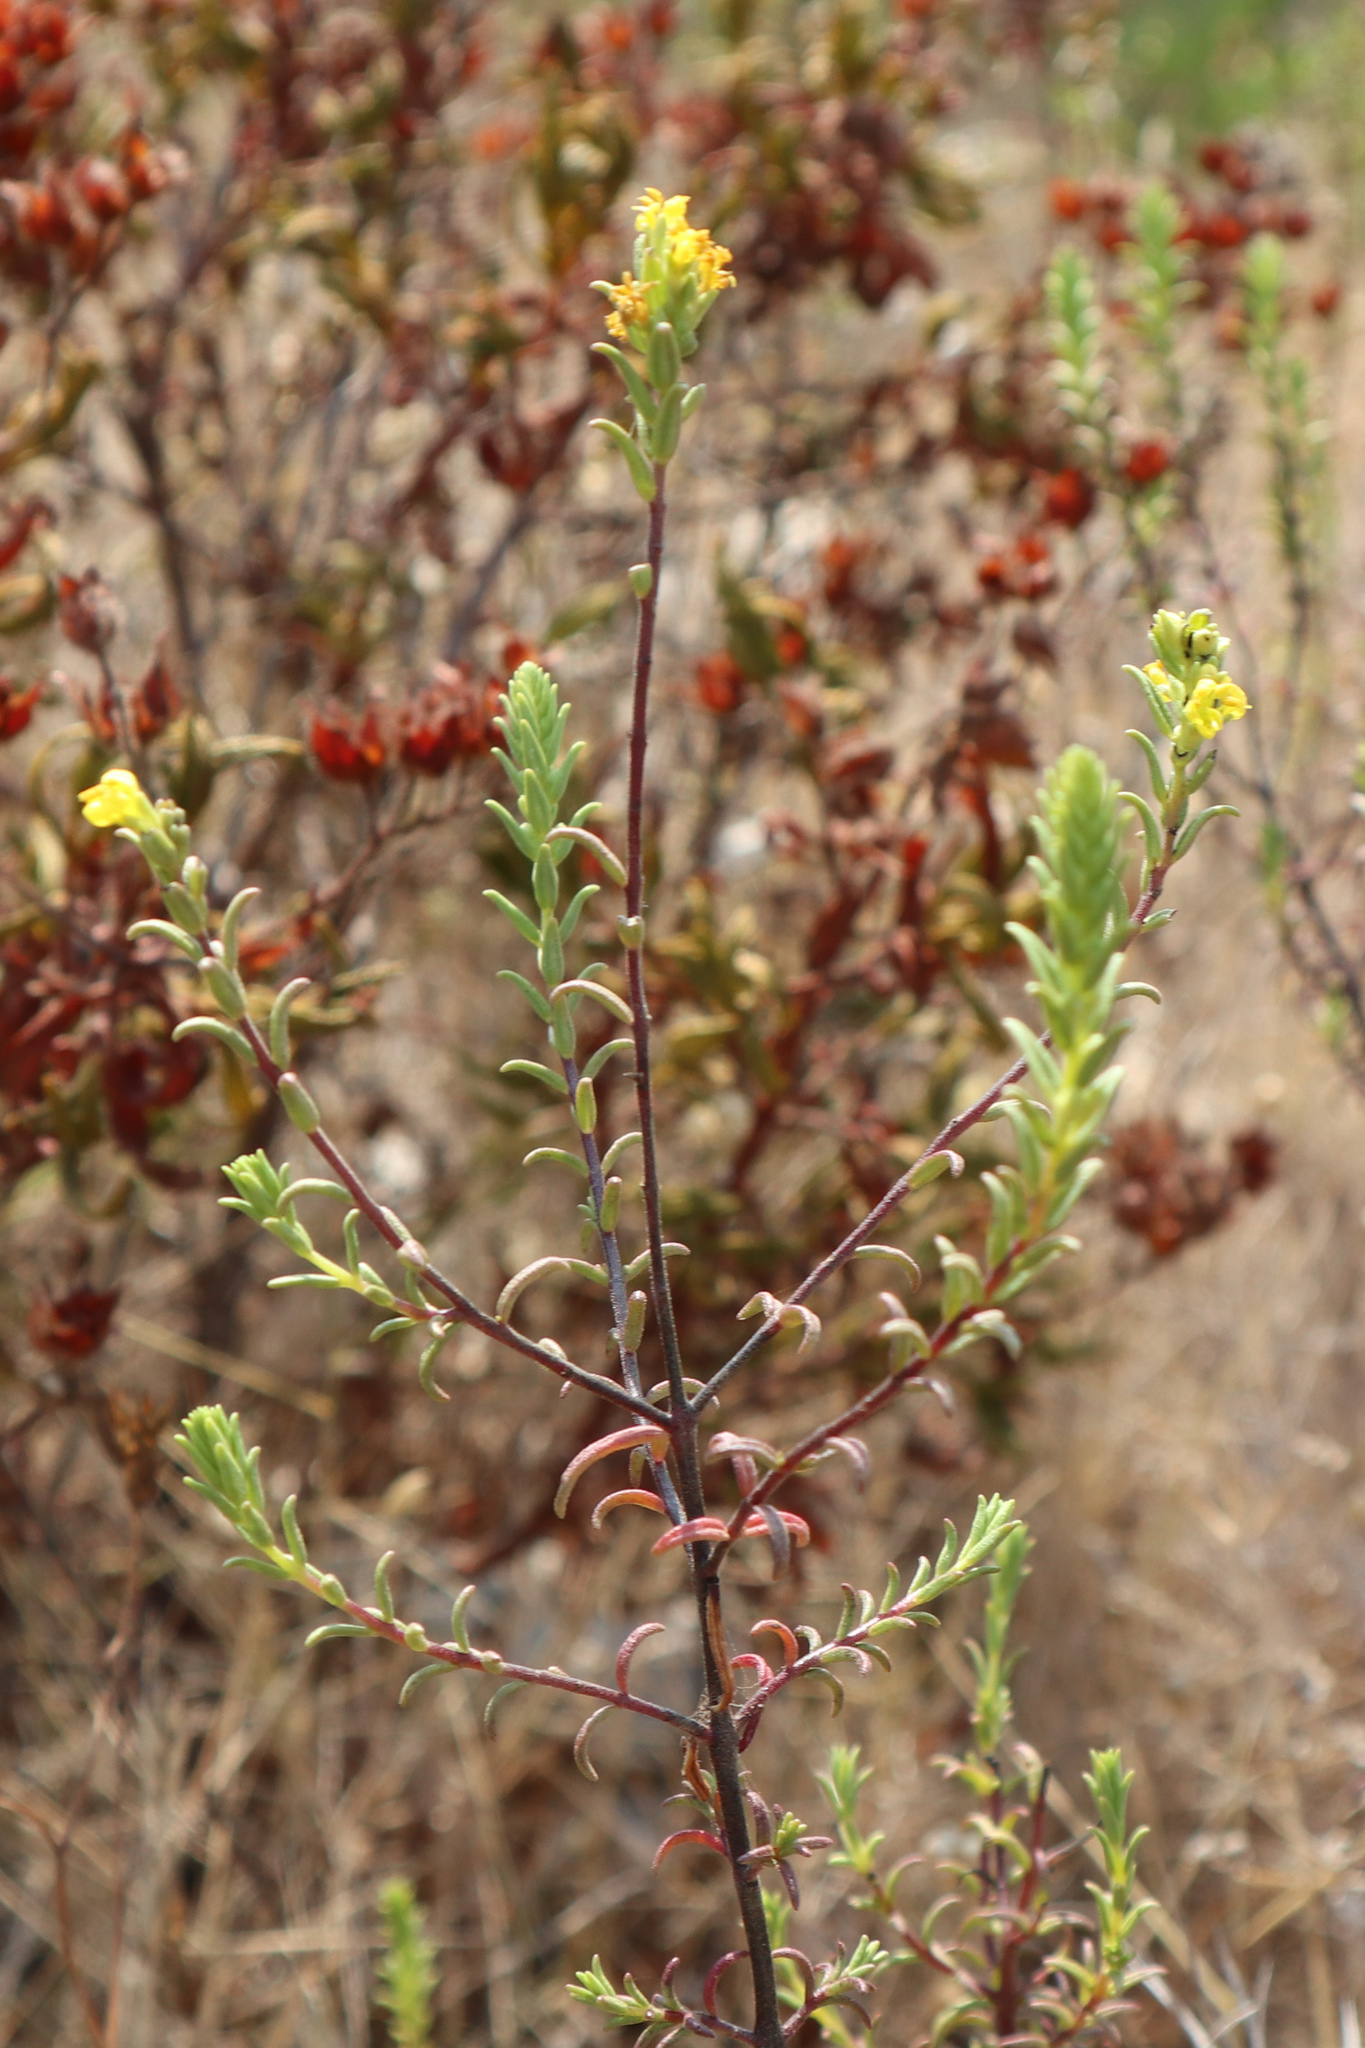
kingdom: Plantae
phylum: Tracheophyta
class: Magnoliopsida
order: Lamiales
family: Orobanchaceae
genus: Odontites
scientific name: Odontites luteus
